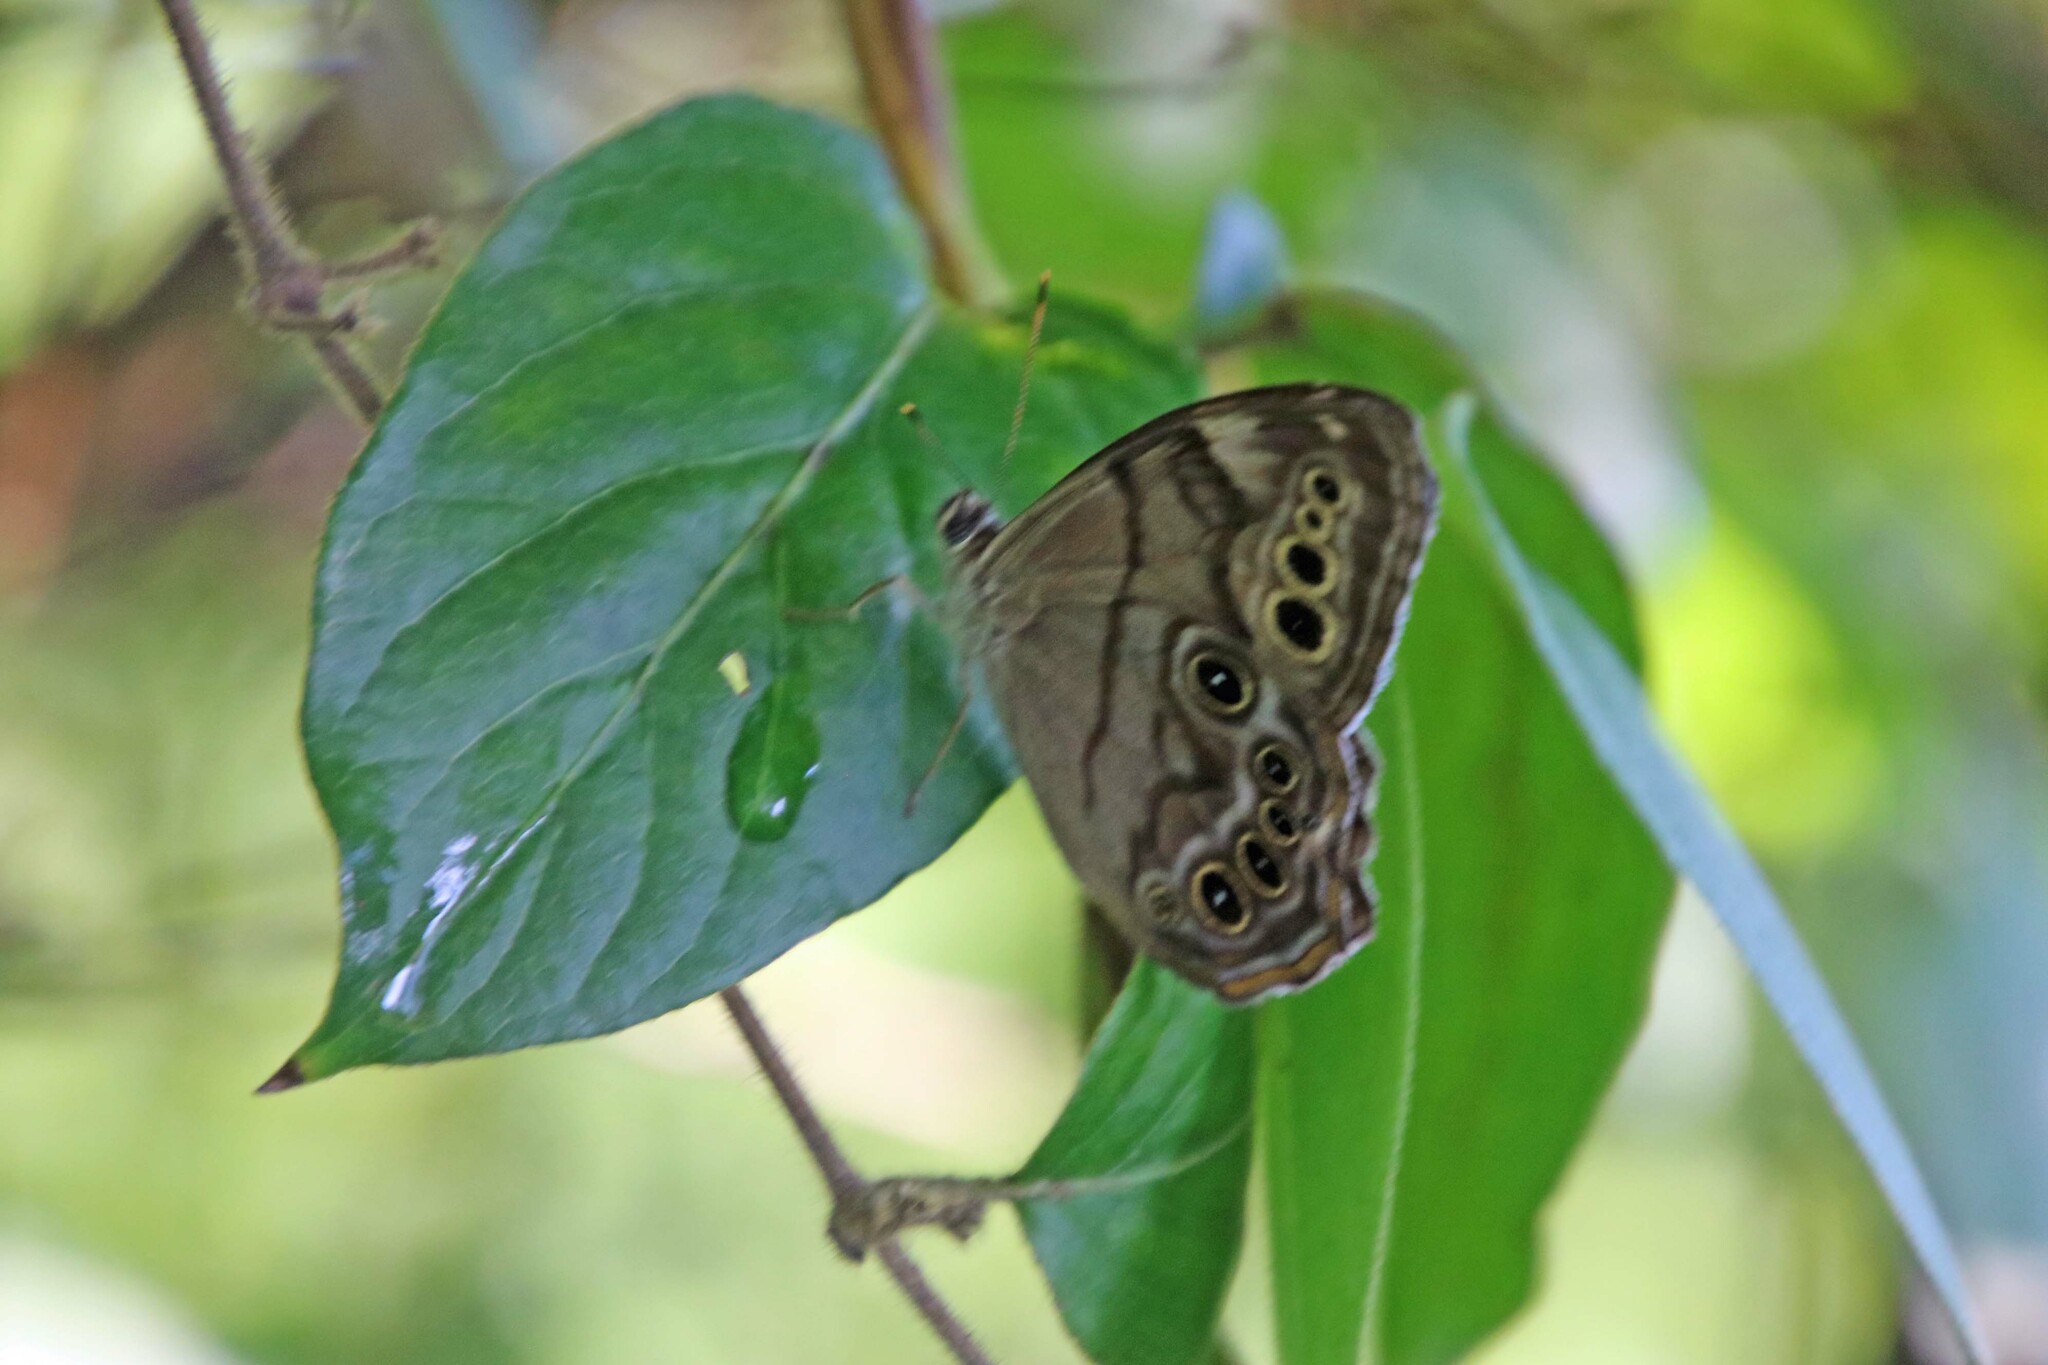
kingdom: Animalia
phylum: Arthropoda
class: Insecta
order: Lepidoptera
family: Nymphalidae
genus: Lethe
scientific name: Lethe anthedon
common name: Northern pearly-eye
